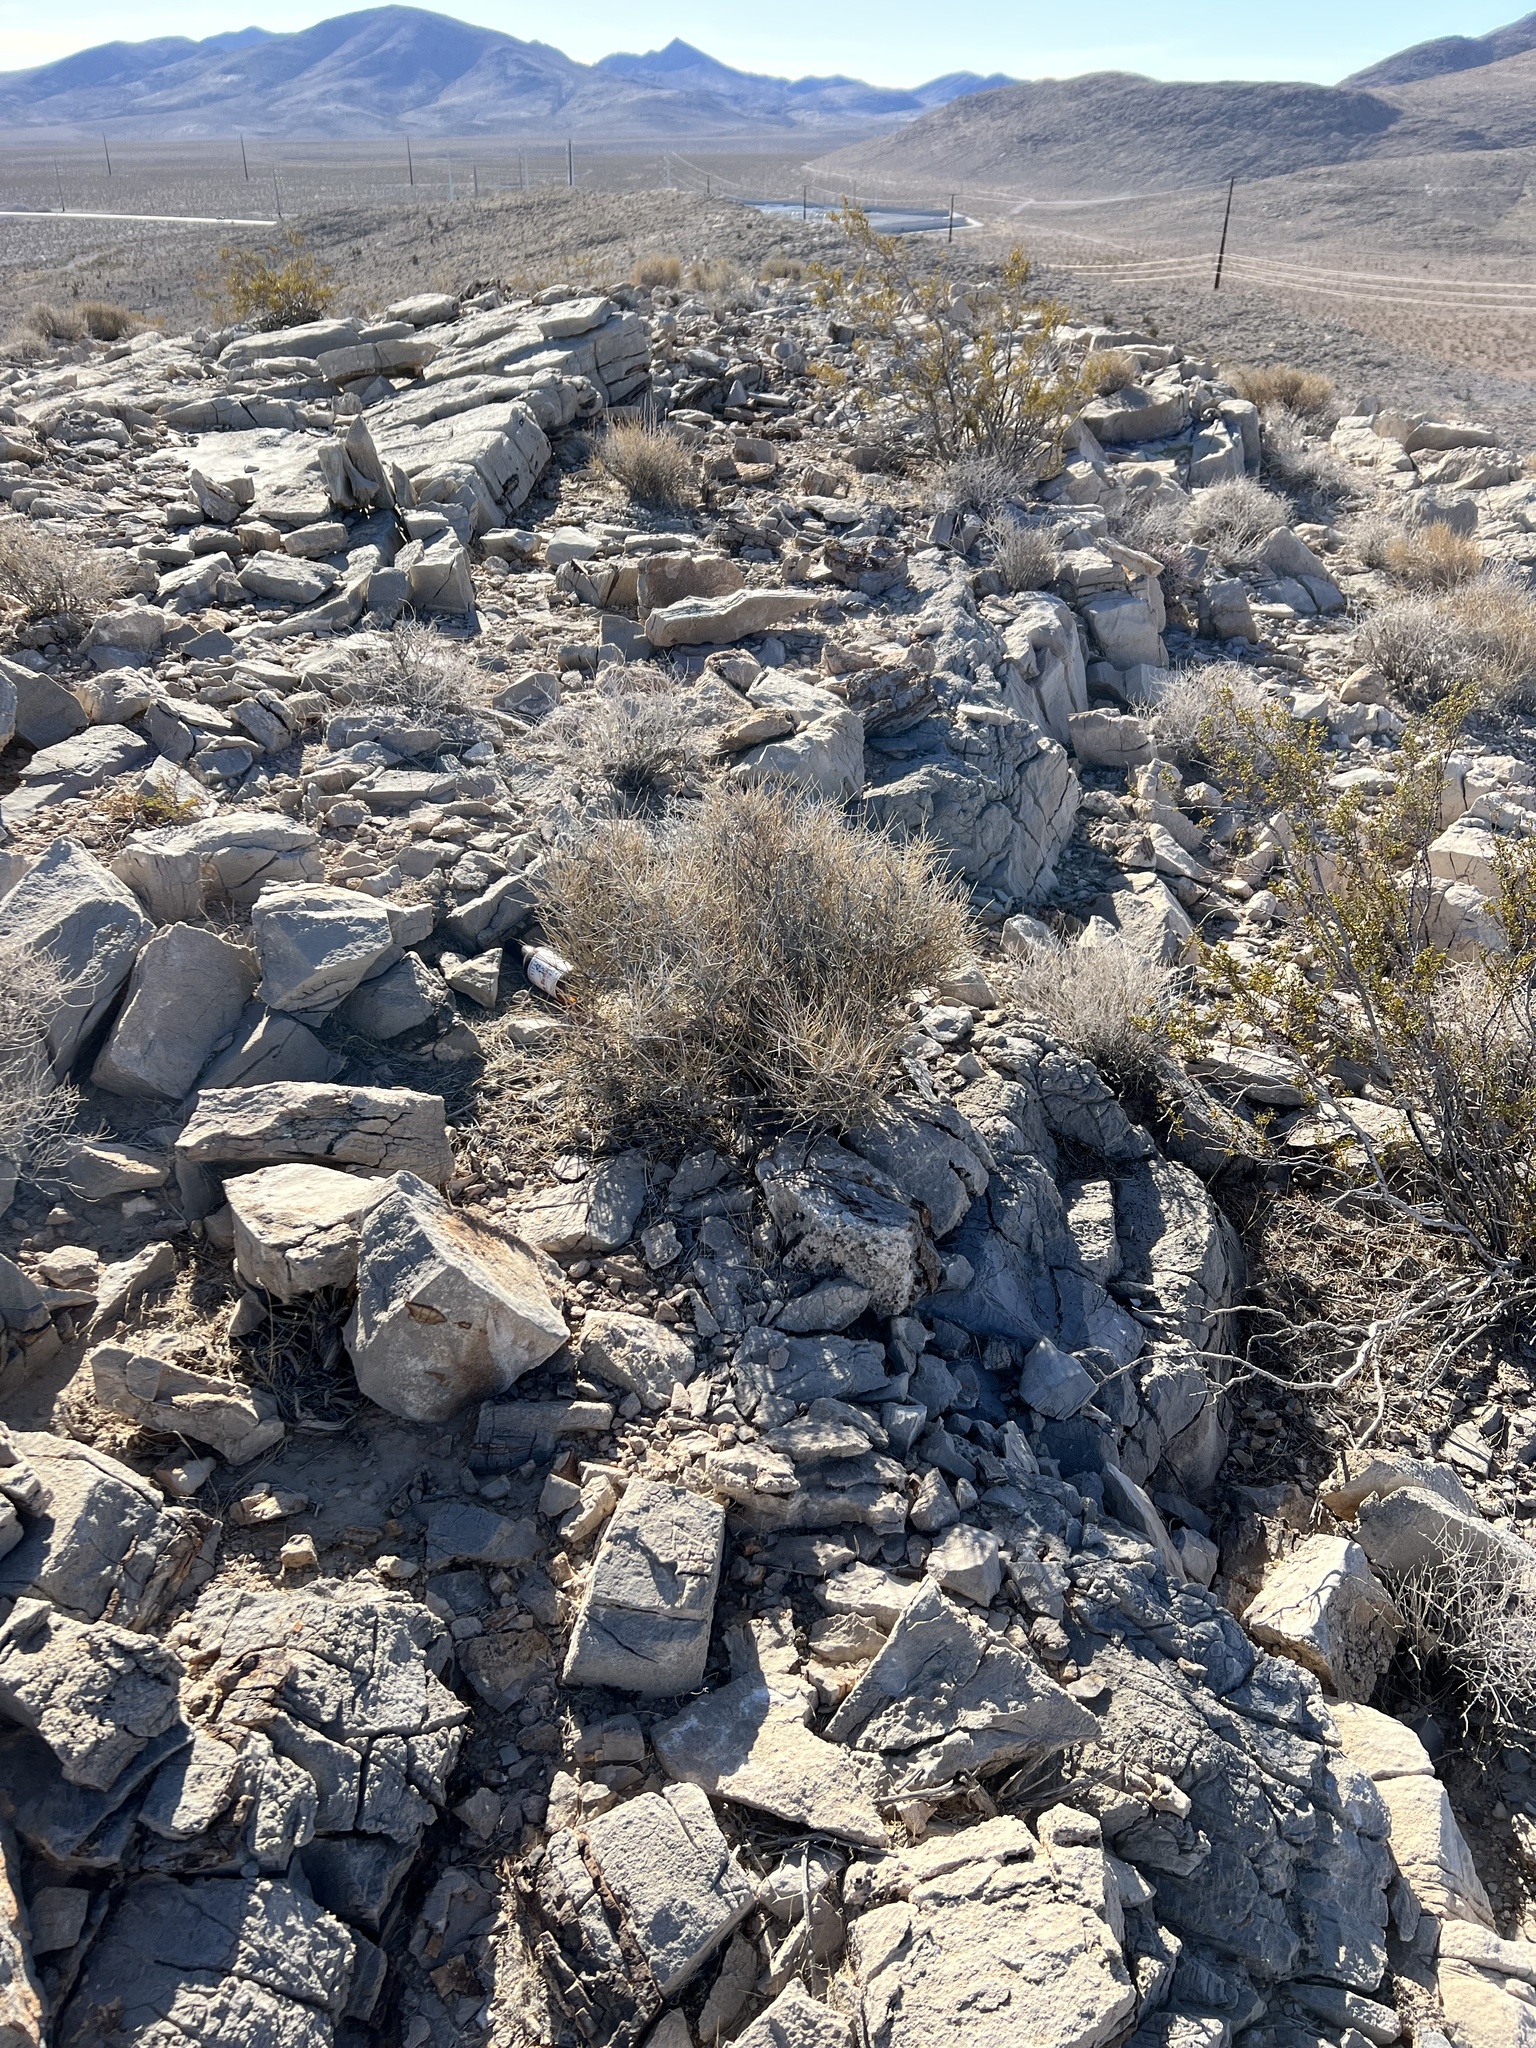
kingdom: Plantae
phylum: Tracheophyta
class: Gnetopsida
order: Ephedrales
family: Ephedraceae
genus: Ephedra
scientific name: Ephedra nevadensis
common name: Gray ephedra
